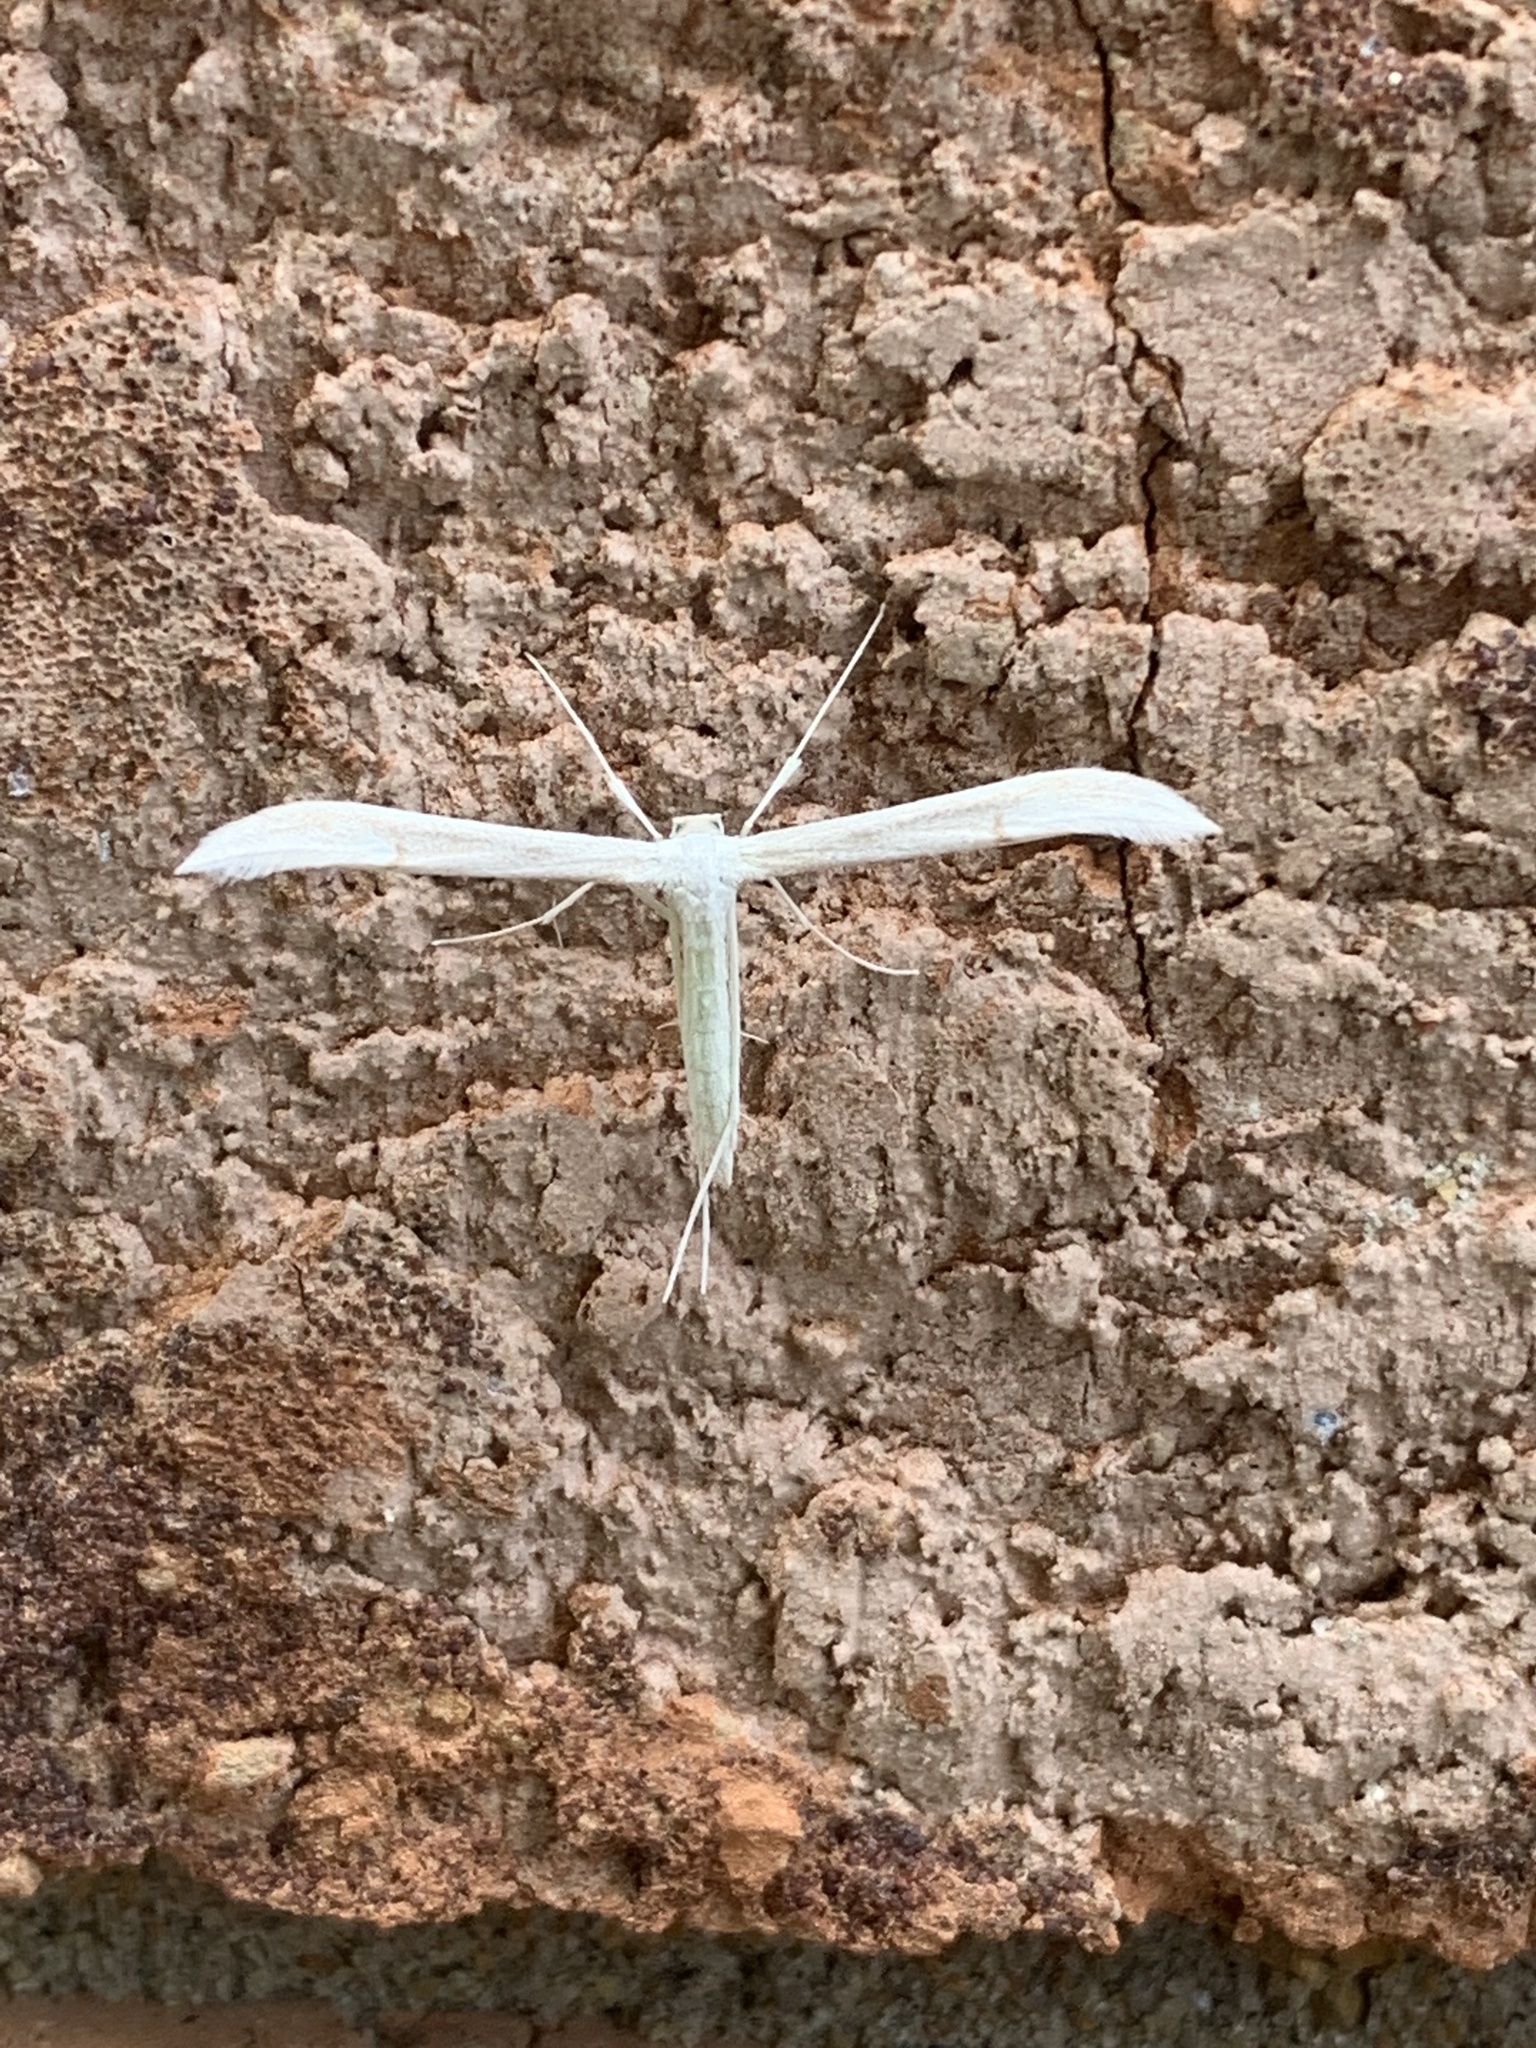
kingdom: Animalia
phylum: Arthropoda
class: Insecta
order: Lepidoptera
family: Pterophoridae
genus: Hellinsia
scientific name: Hellinsia homodactylus
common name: Plain plume moth
